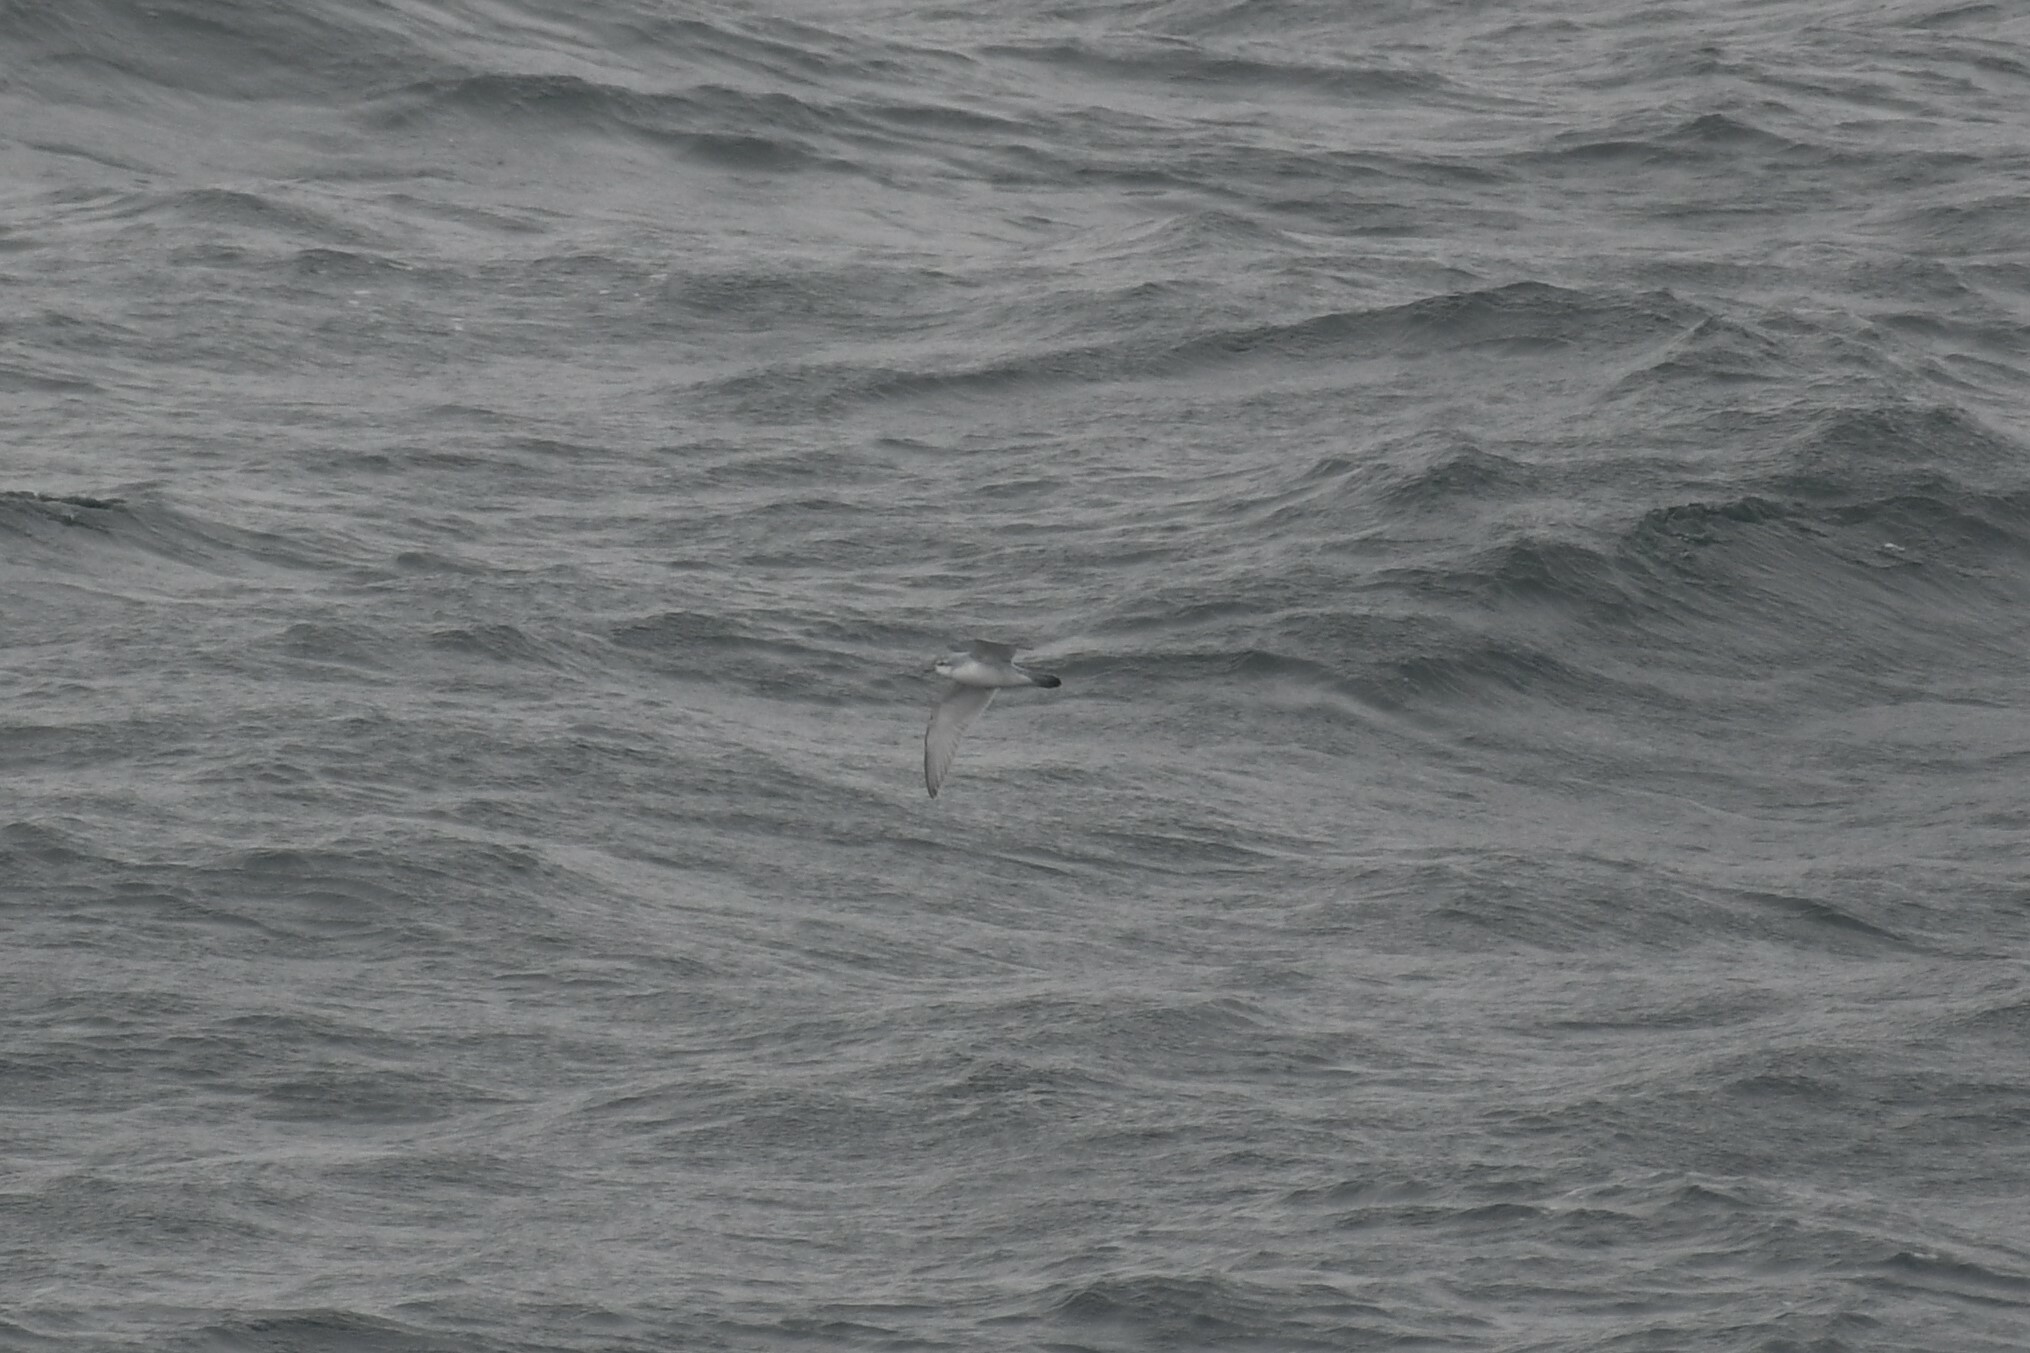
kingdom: Animalia
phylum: Chordata
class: Aves
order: Procellariiformes
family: Procellariidae
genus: Pachyptila
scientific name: Pachyptila turtur
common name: Fairy prion
